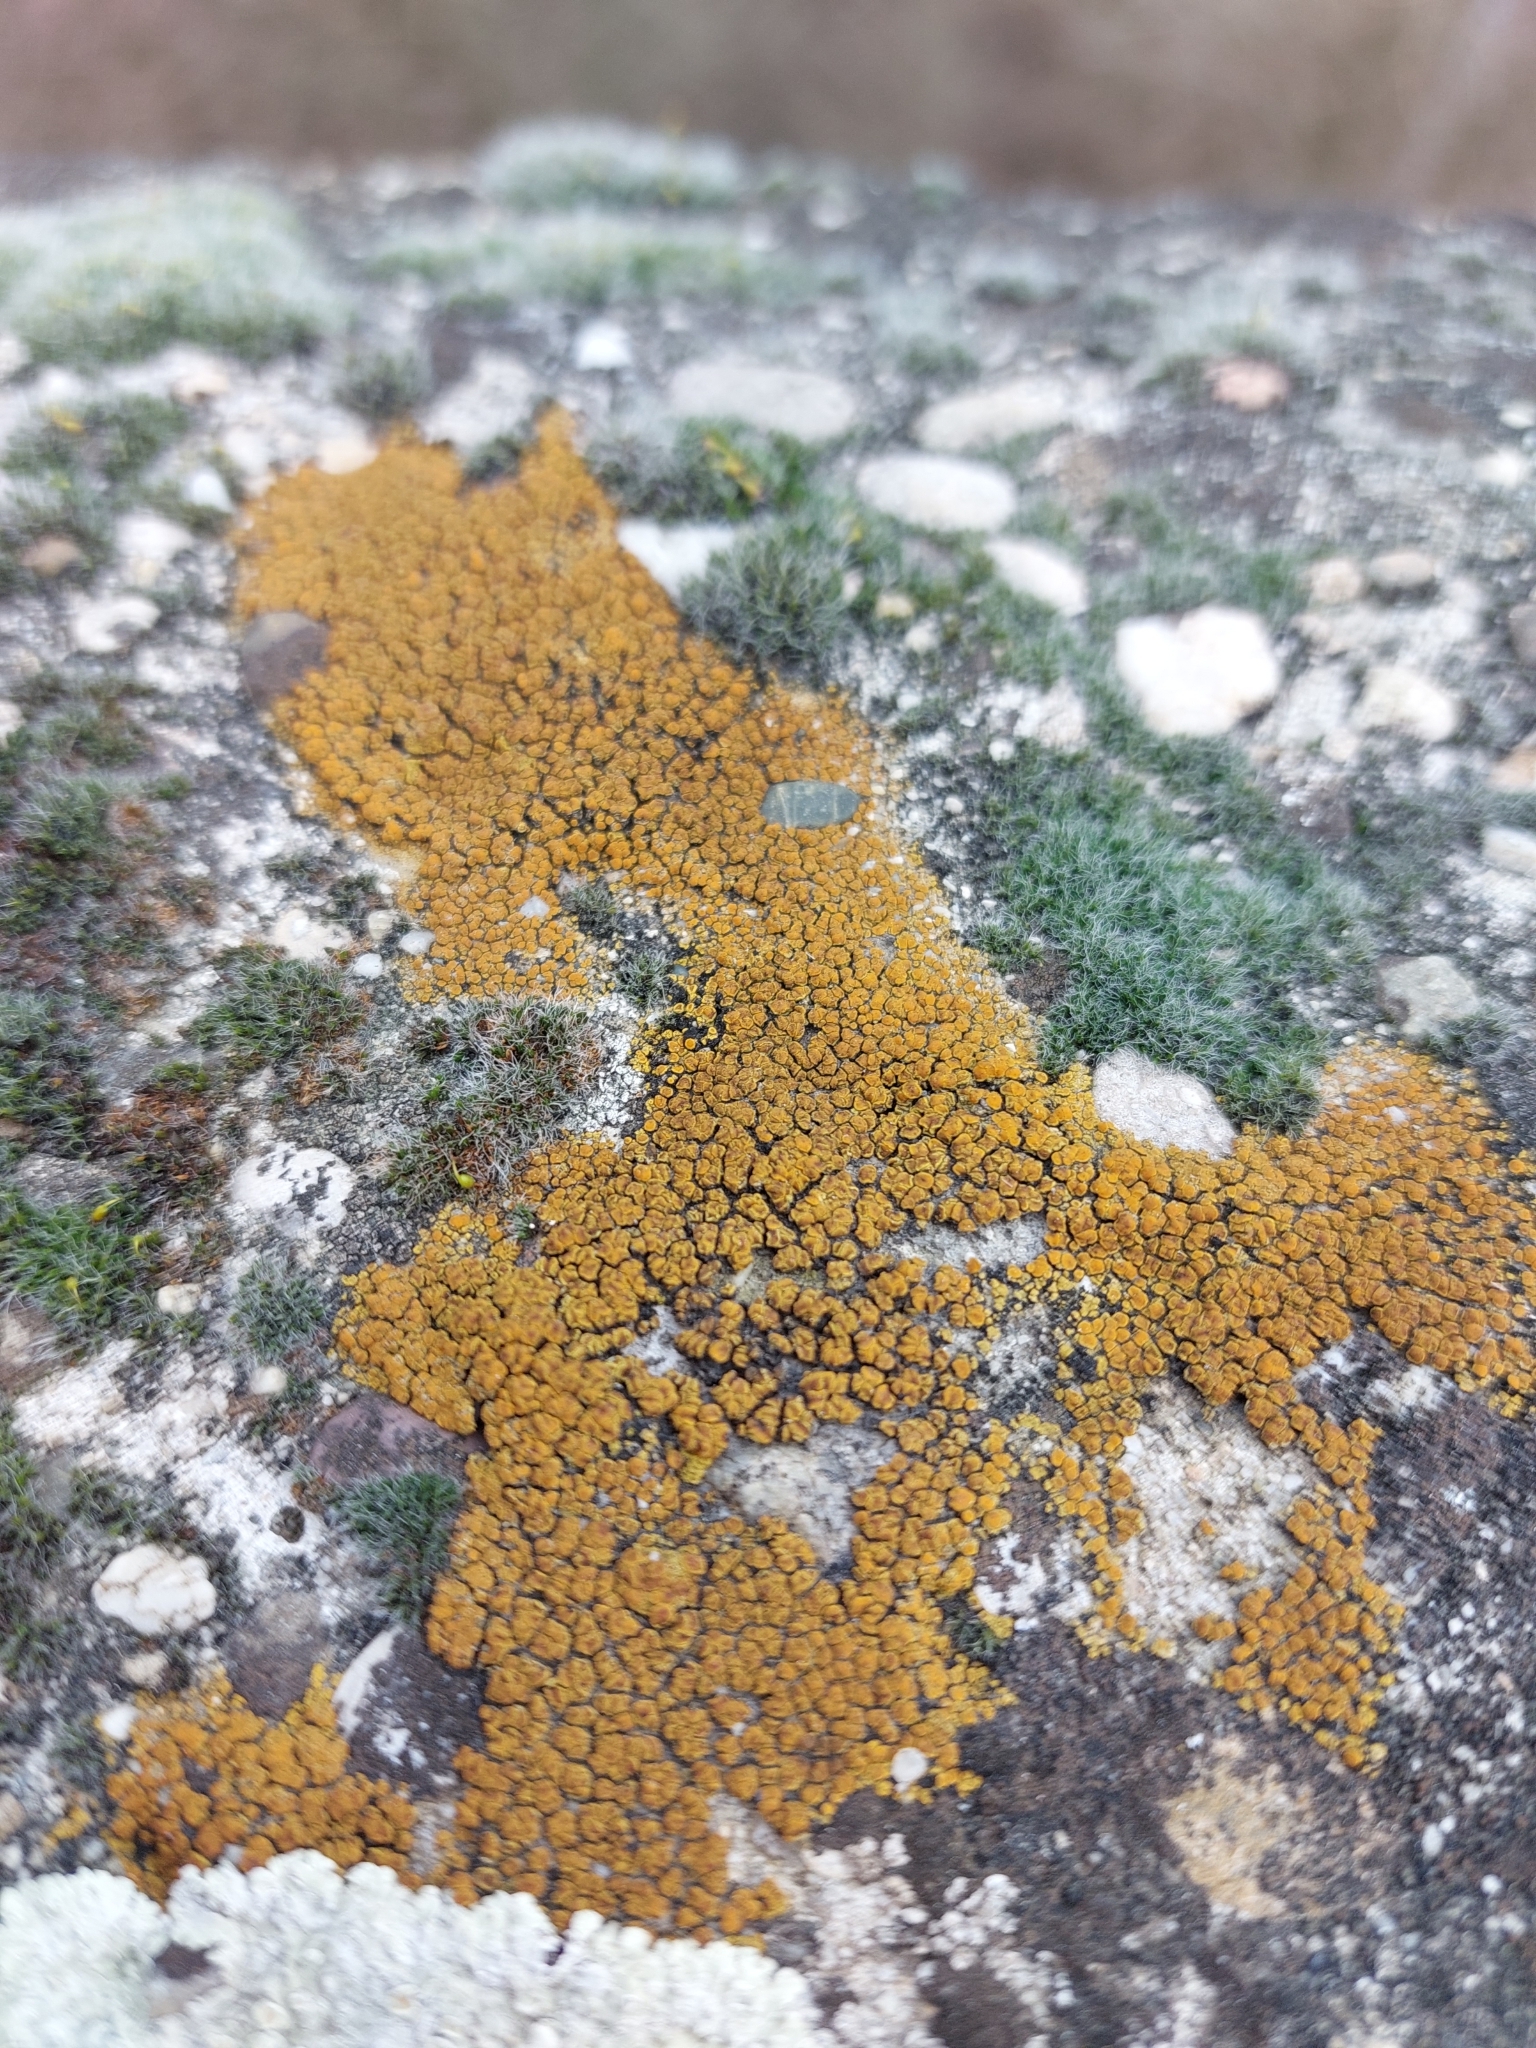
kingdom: Fungi
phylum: Ascomycota
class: Candelariomycetes
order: Candelariales
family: Candelariaceae
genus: Candelariella
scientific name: Candelariella aurella
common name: Hidden goldspeck lichen
